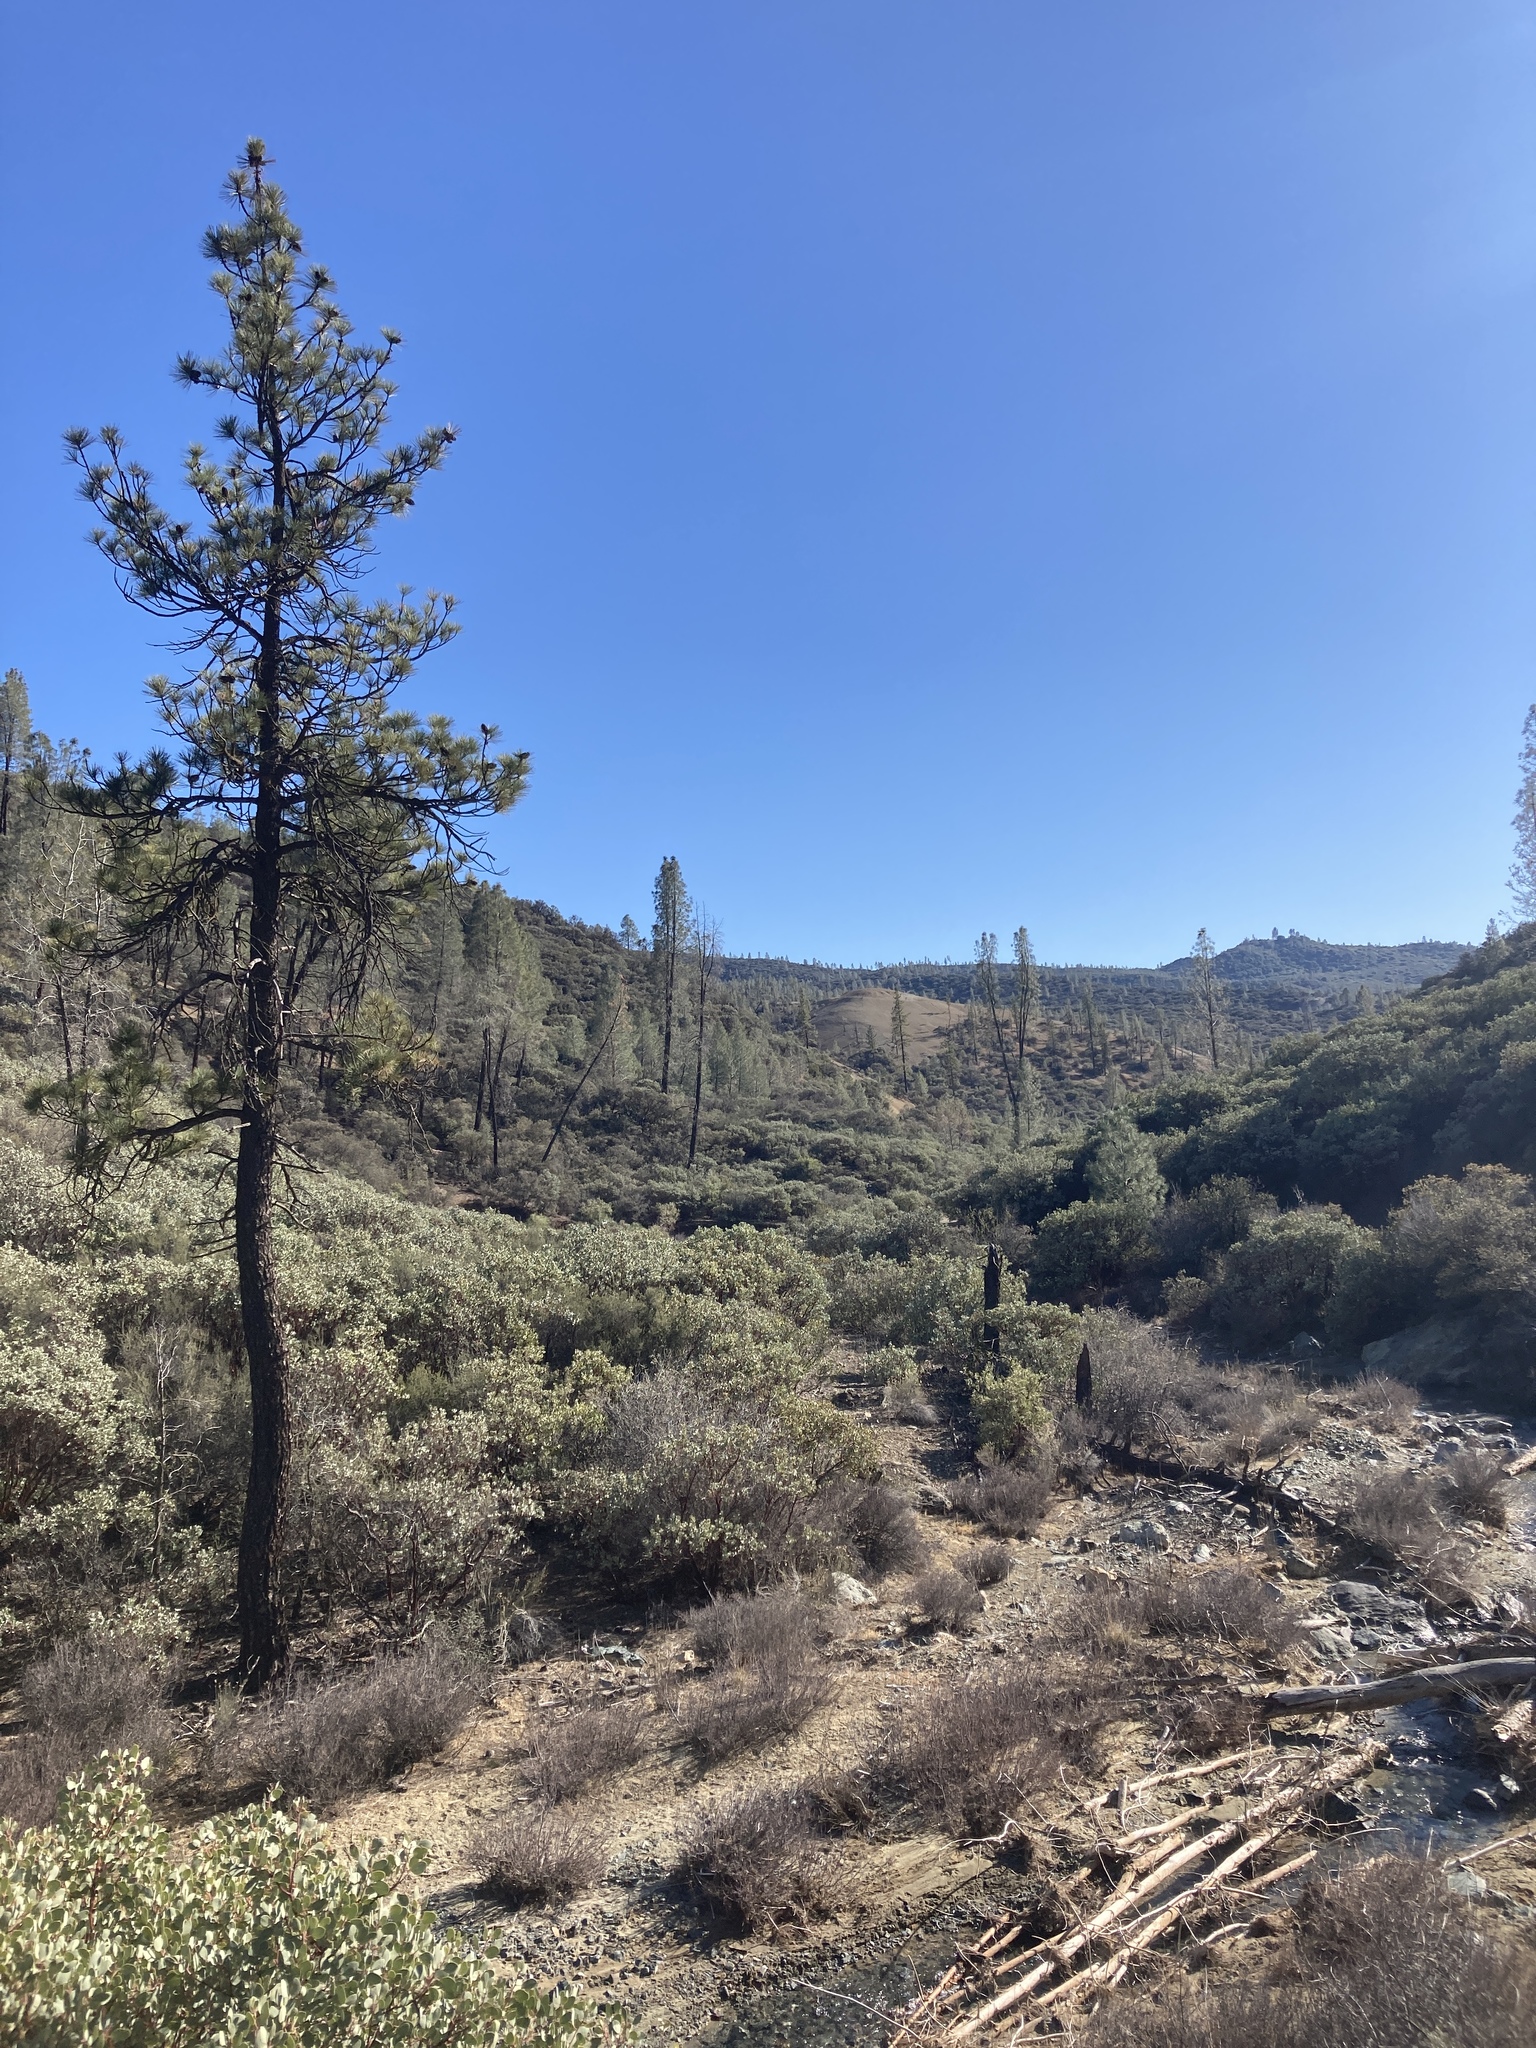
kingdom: Plantae
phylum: Tracheophyta
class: Pinopsida
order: Pinales
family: Pinaceae
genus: Pinus
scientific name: Pinus jeffreyi
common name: Jeffrey pine
